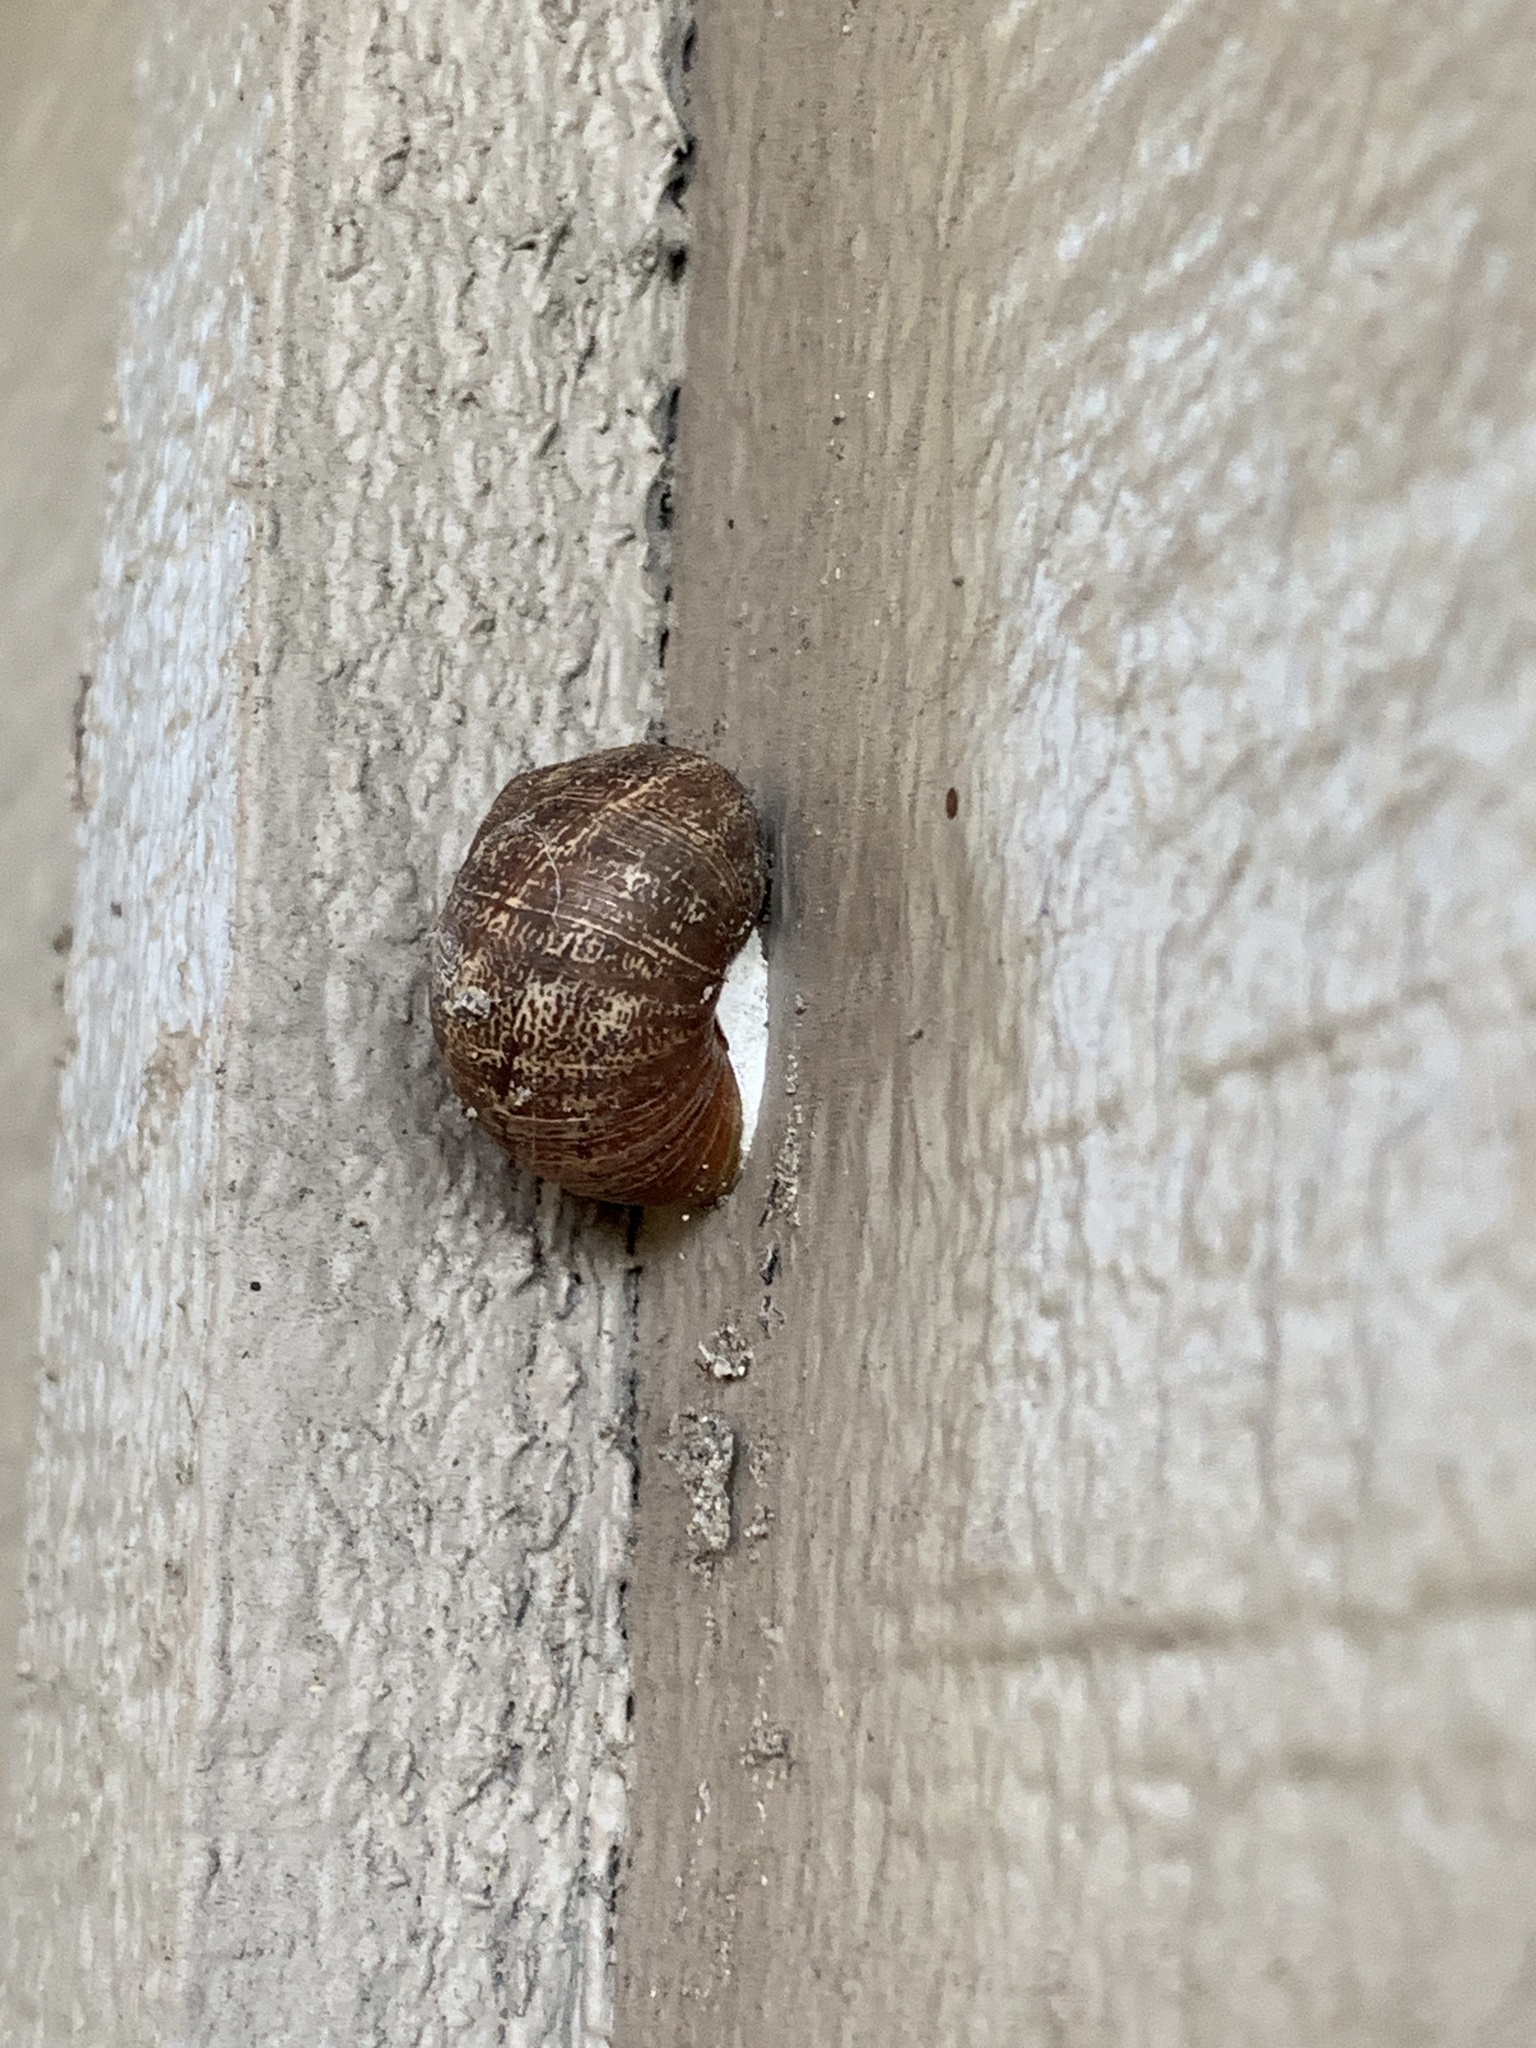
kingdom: Animalia
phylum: Mollusca
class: Gastropoda
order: Stylommatophora
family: Helicidae
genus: Cornu
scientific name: Cornu aspersum
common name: Brown garden snail
